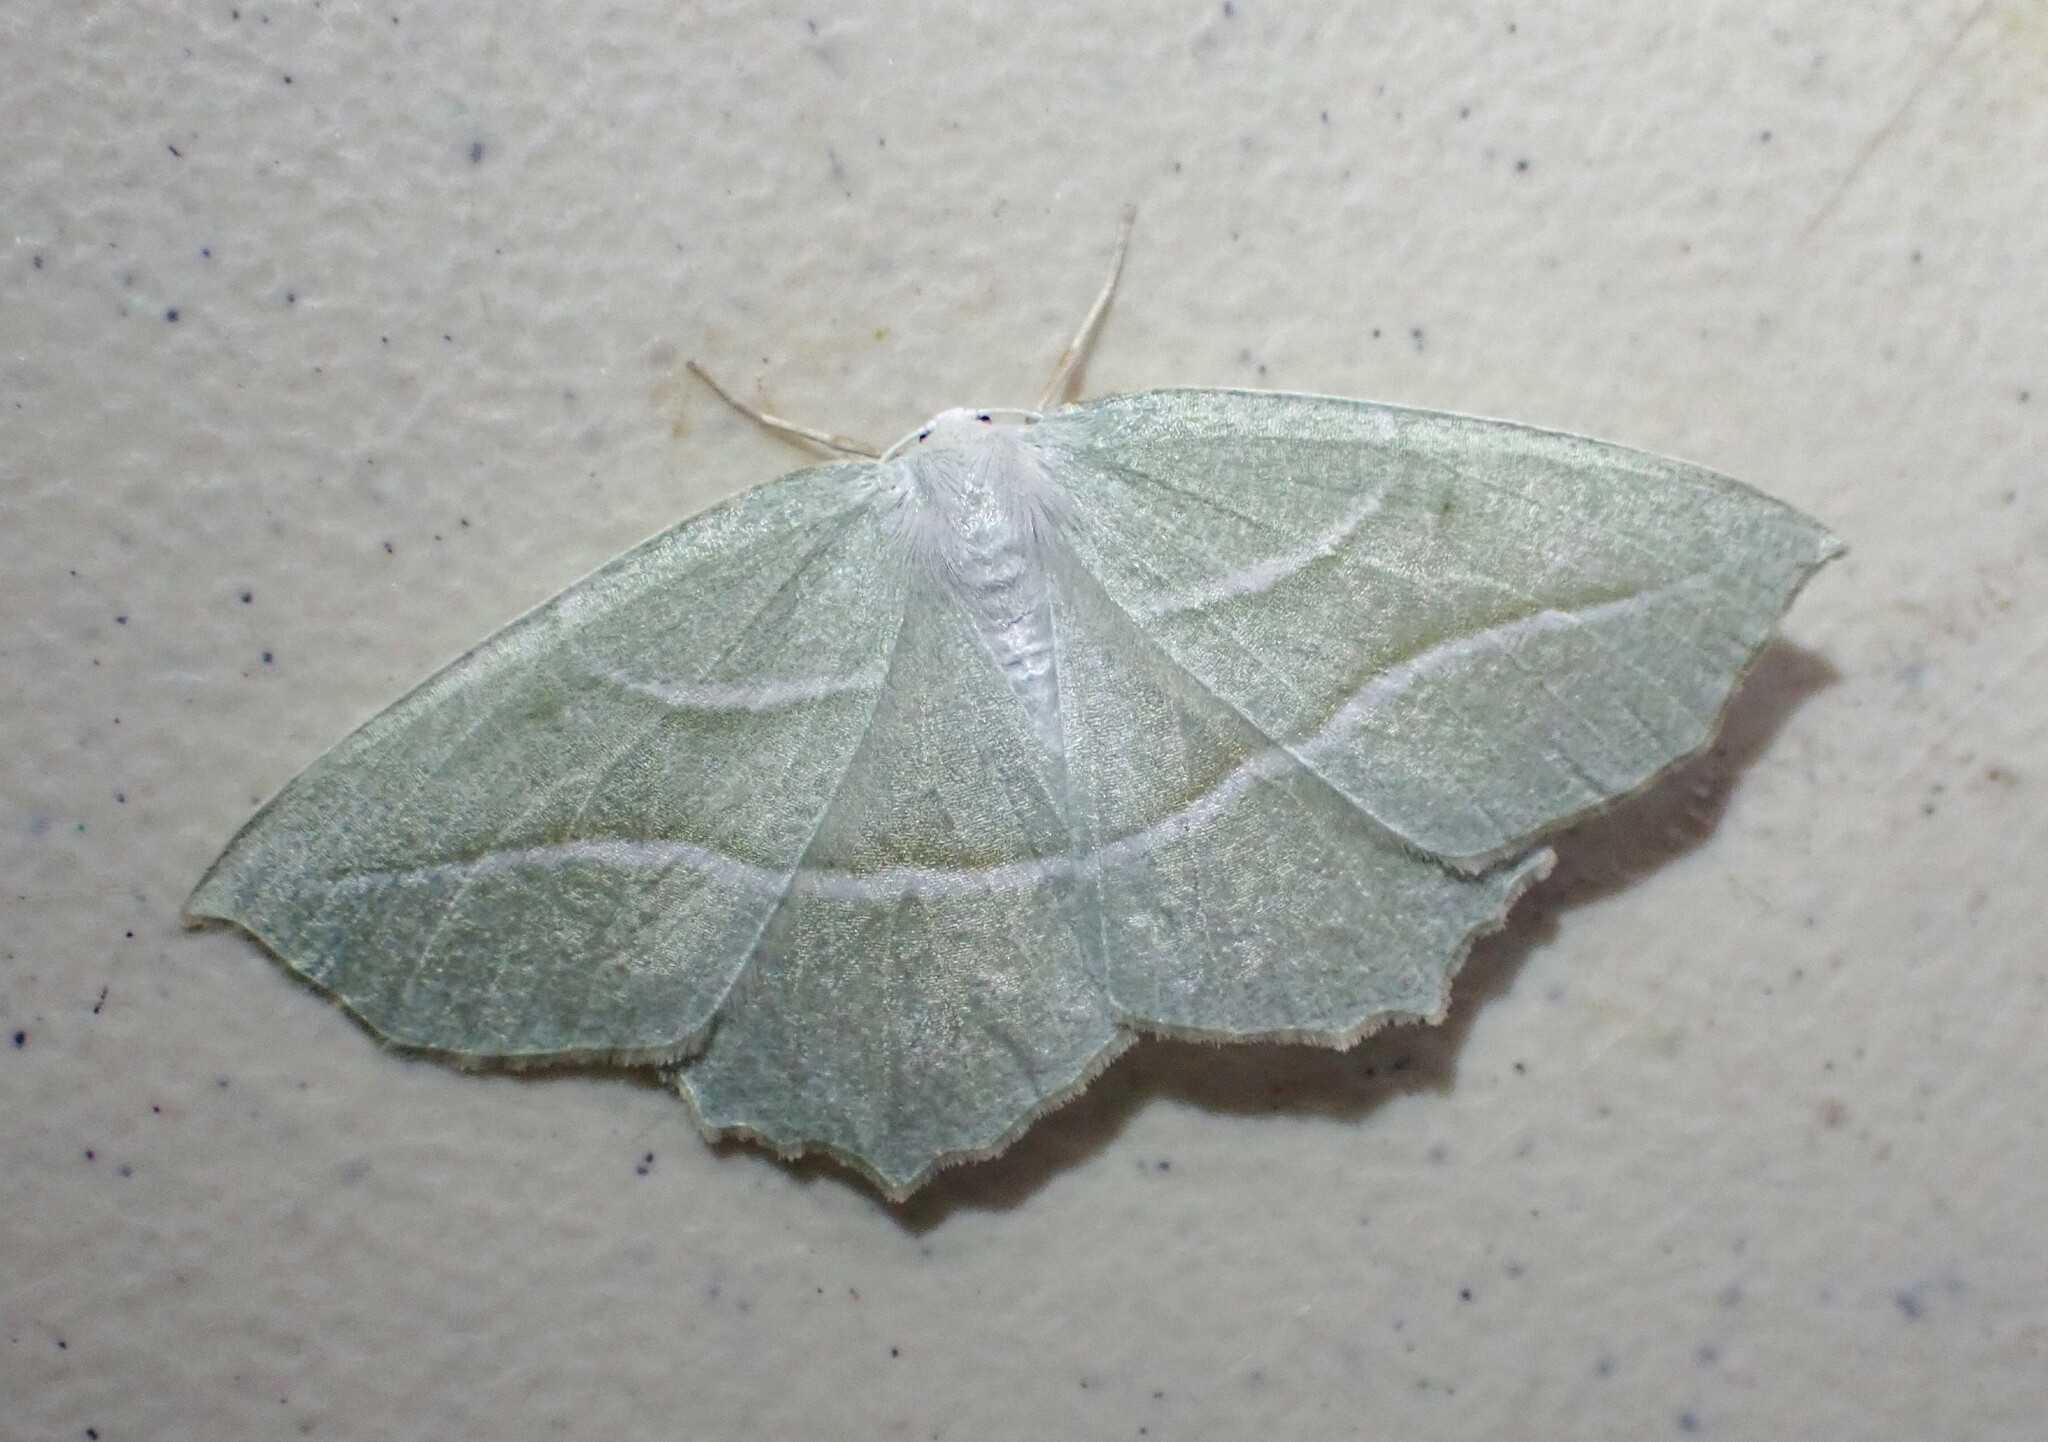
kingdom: Animalia
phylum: Arthropoda
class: Insecta
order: Lepidoptera
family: Geometridae
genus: Campaea
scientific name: Campaea perlata
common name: Fringed looper
